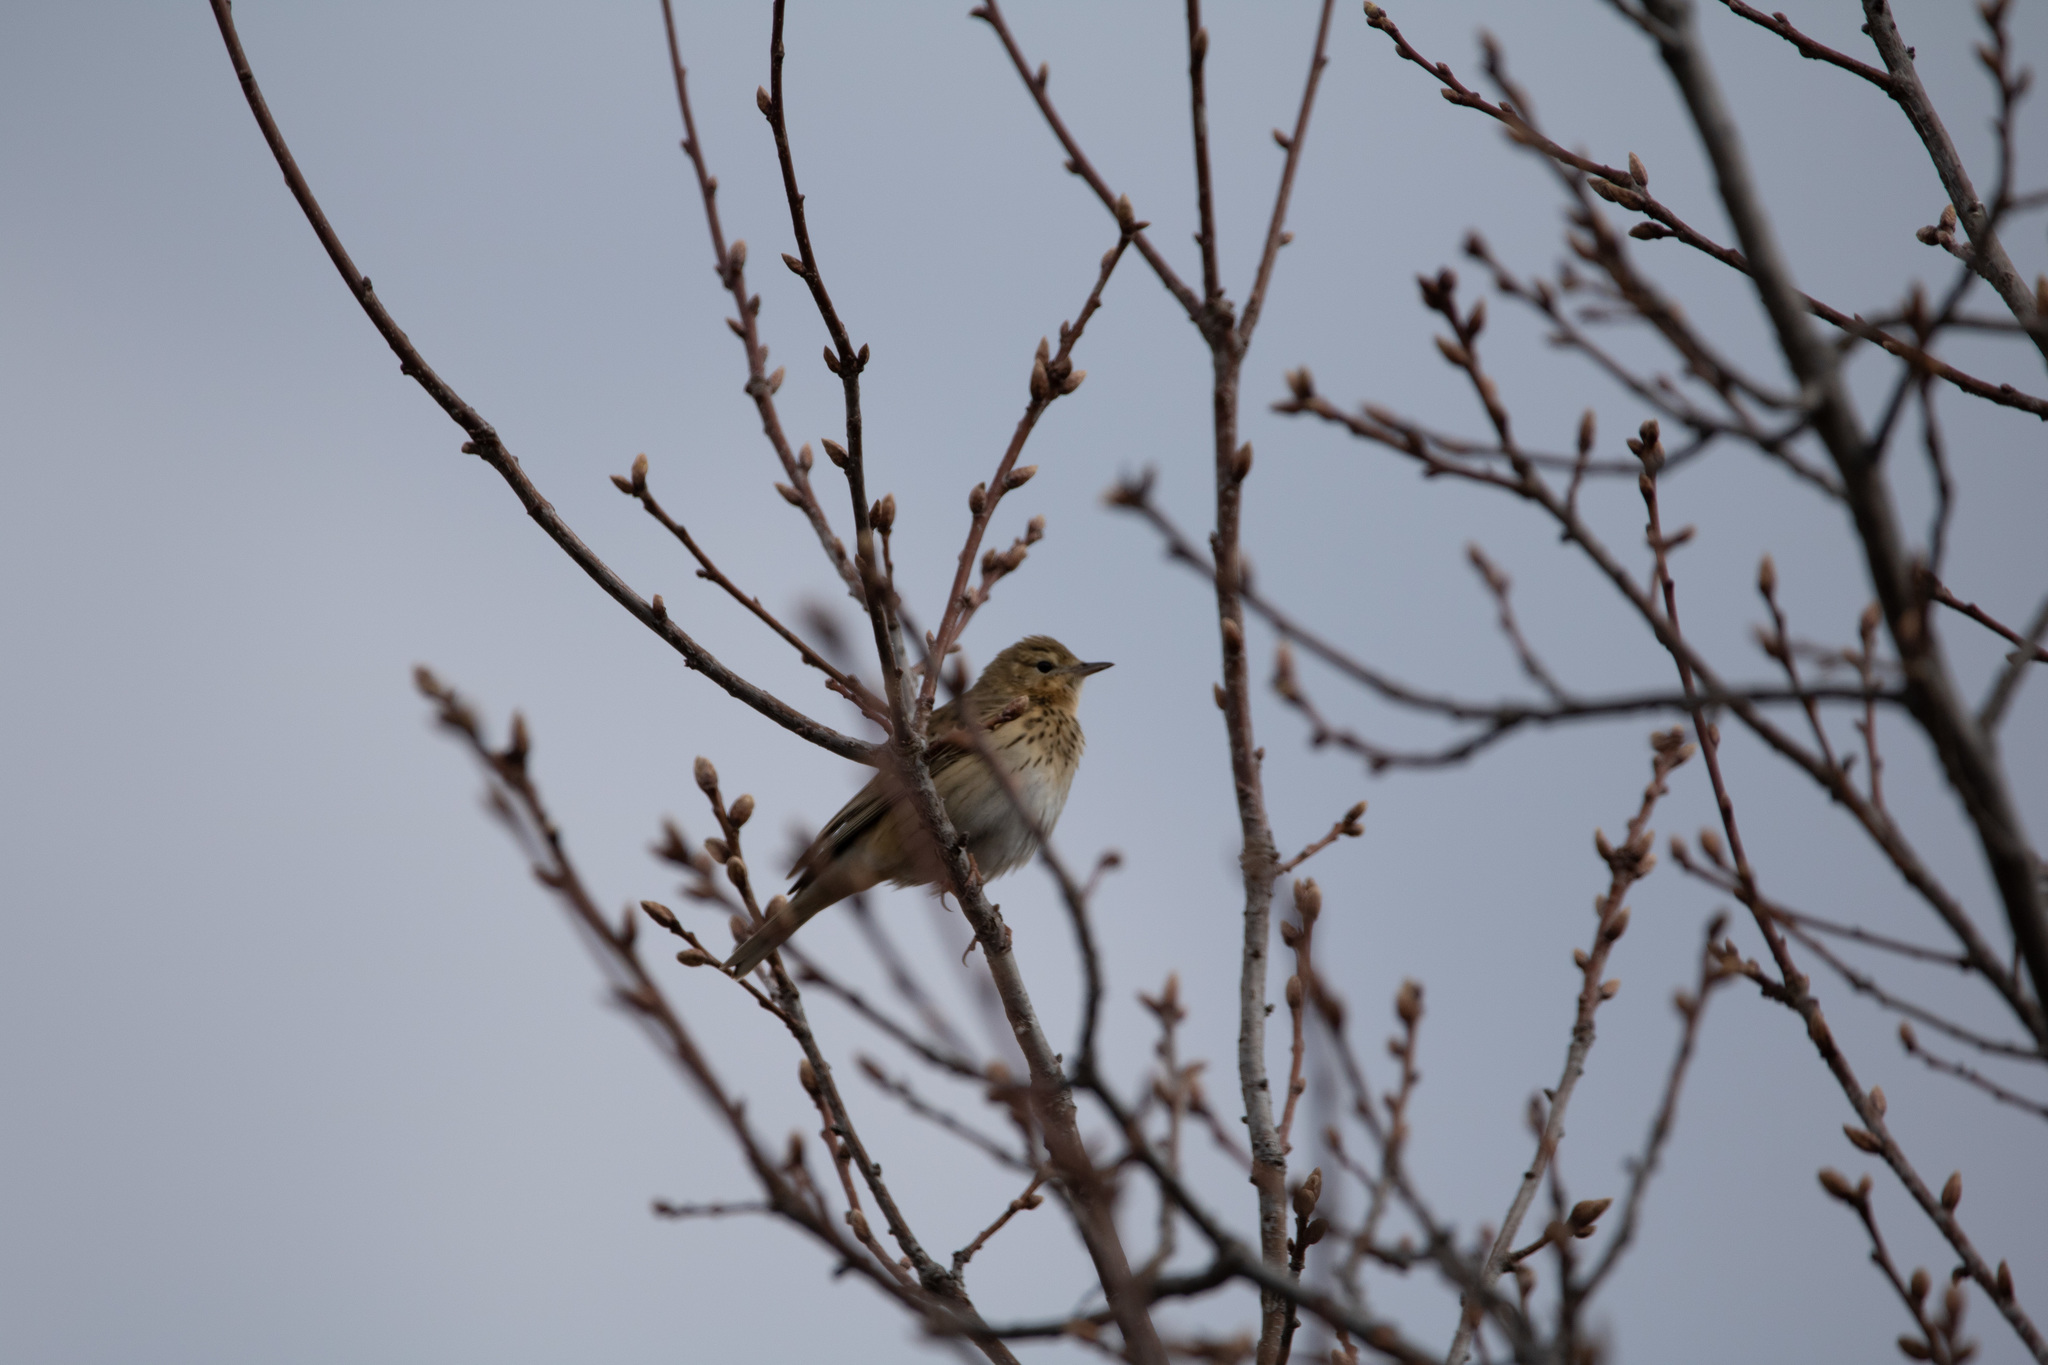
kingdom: Animalia
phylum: Chordata
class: Aves
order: Passeriformes
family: Motacillidae
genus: Anthus
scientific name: Anthus trivialis
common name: Tree pipit
